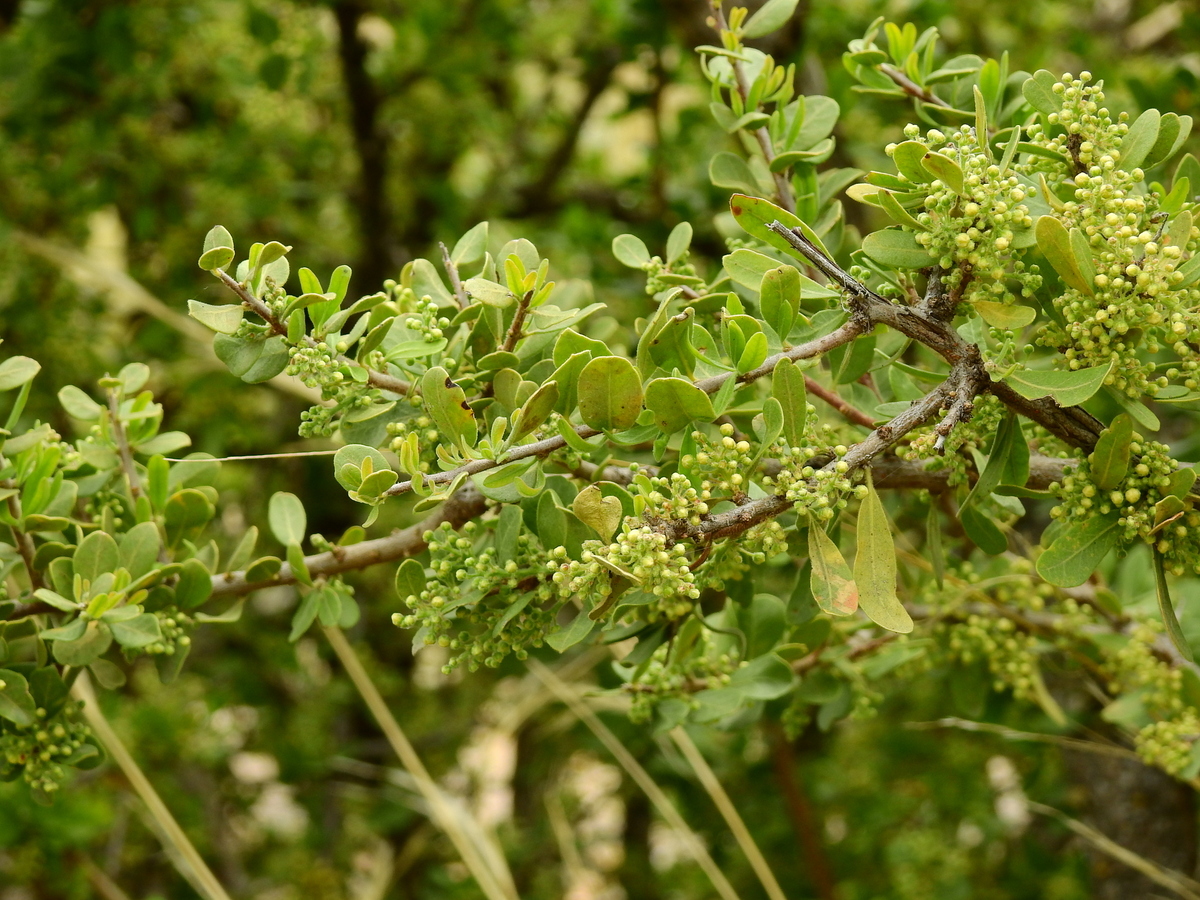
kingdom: Plantae
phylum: Tracheophyta
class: Magnoliopsida
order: Sapindales
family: Anacardiaceae
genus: Schinus
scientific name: Schinus fasciculata
